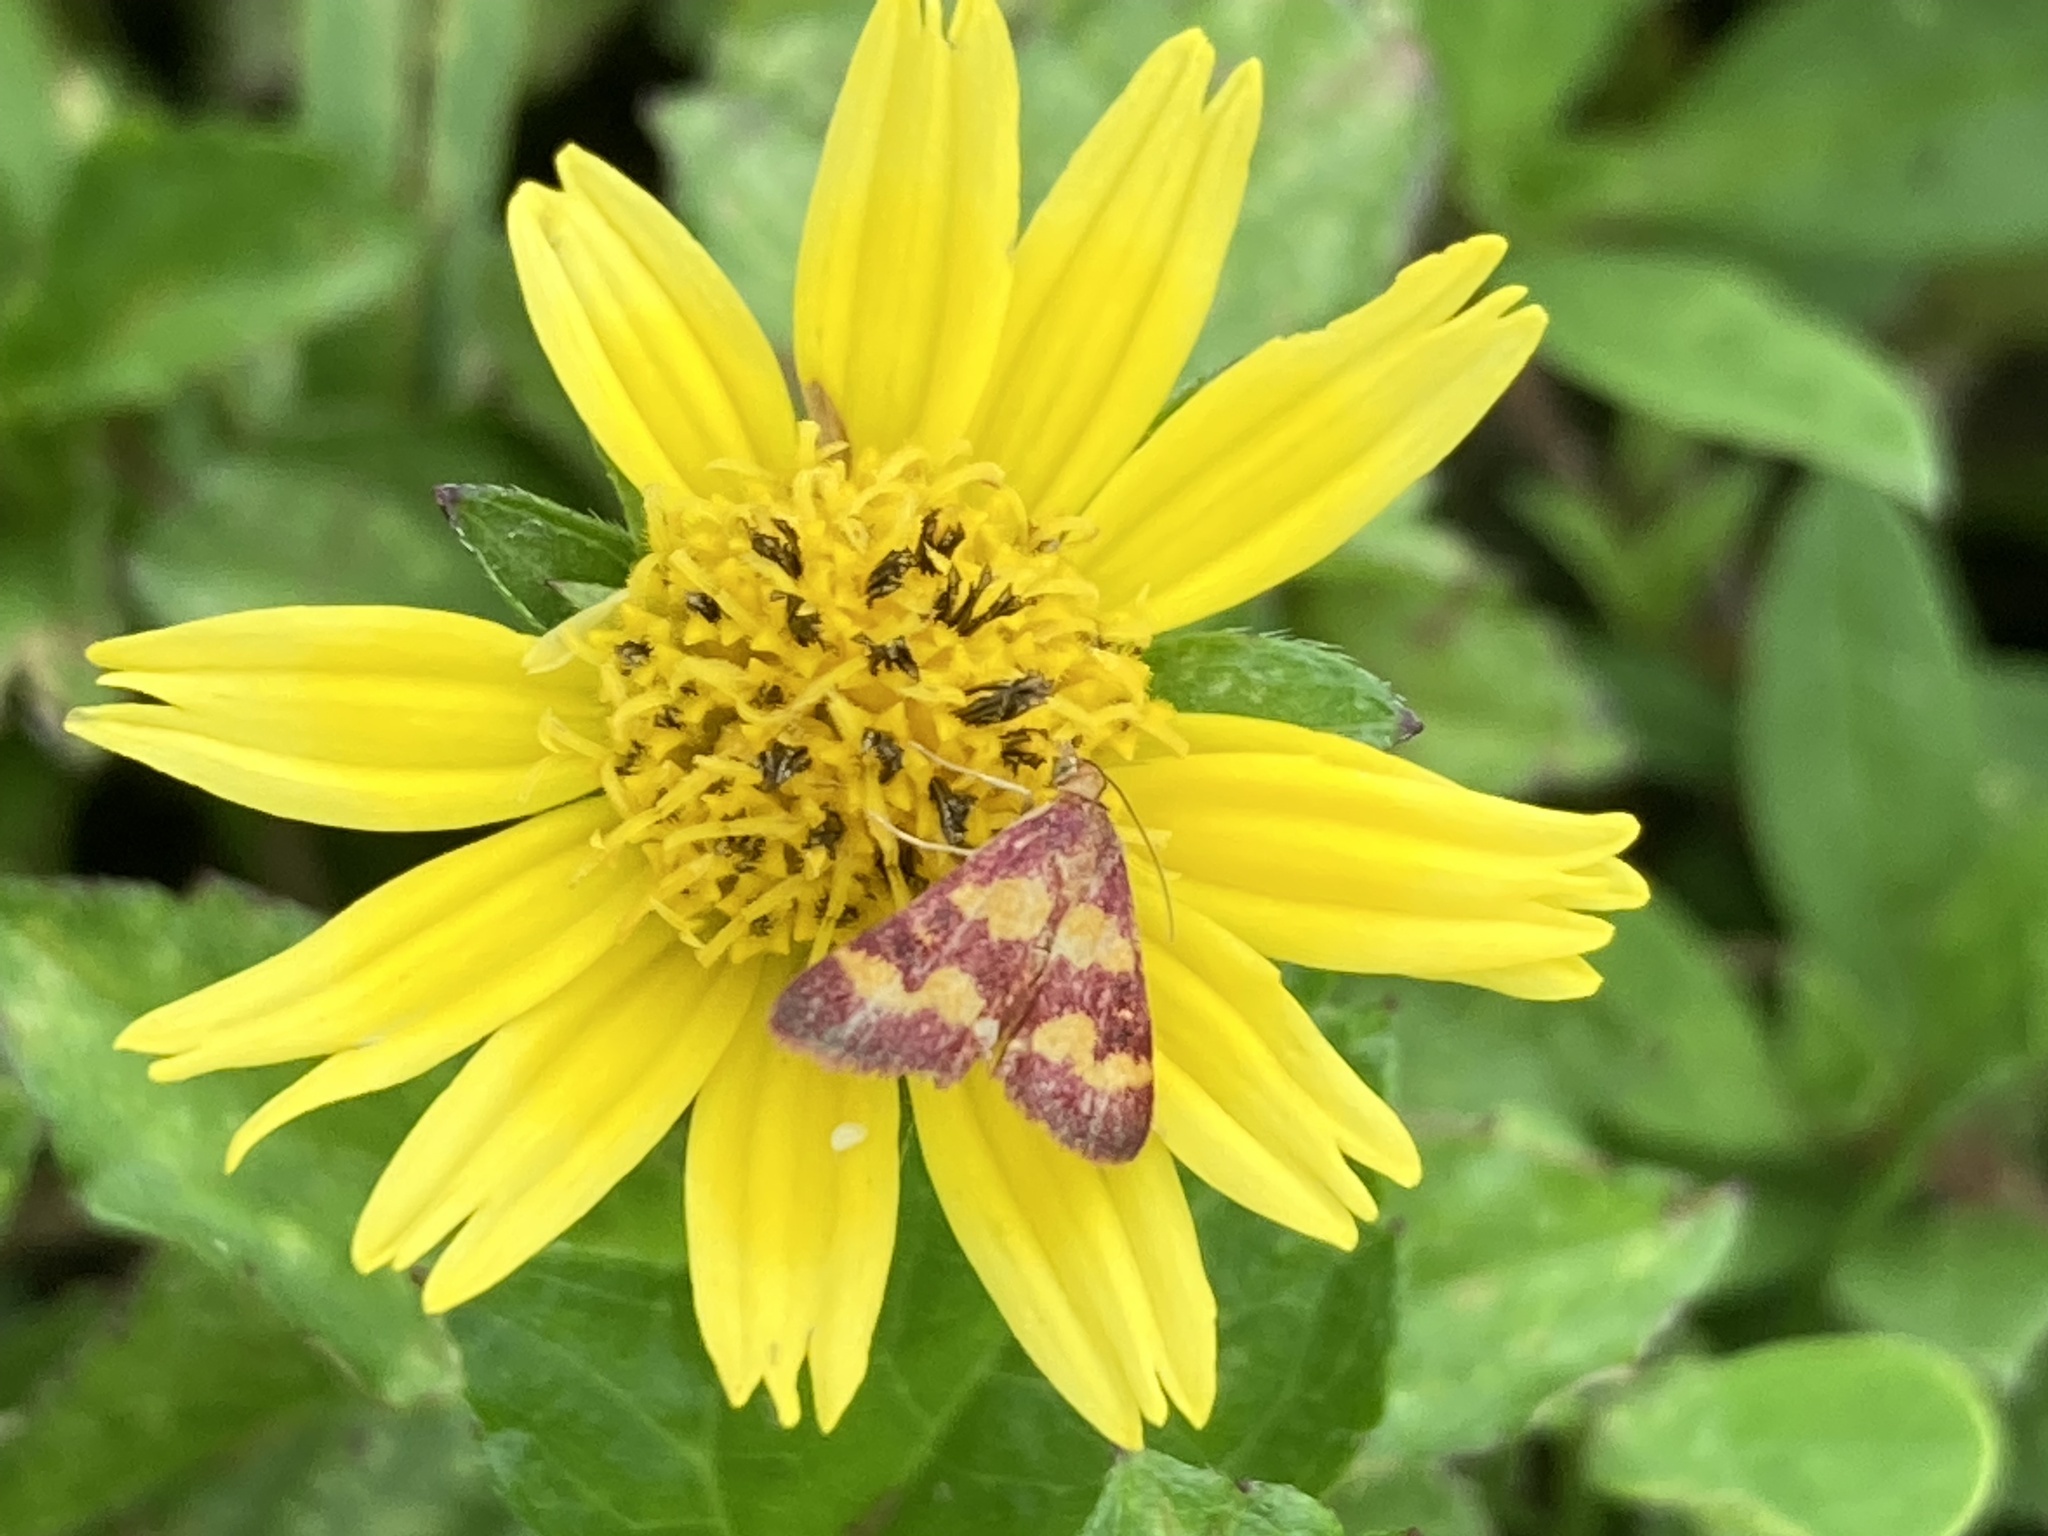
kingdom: Animalia
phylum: Arthropoda
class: Insecta
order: Lepidoptera
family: Crambidae
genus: Pyrausta
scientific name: Pyrausta tyralis
